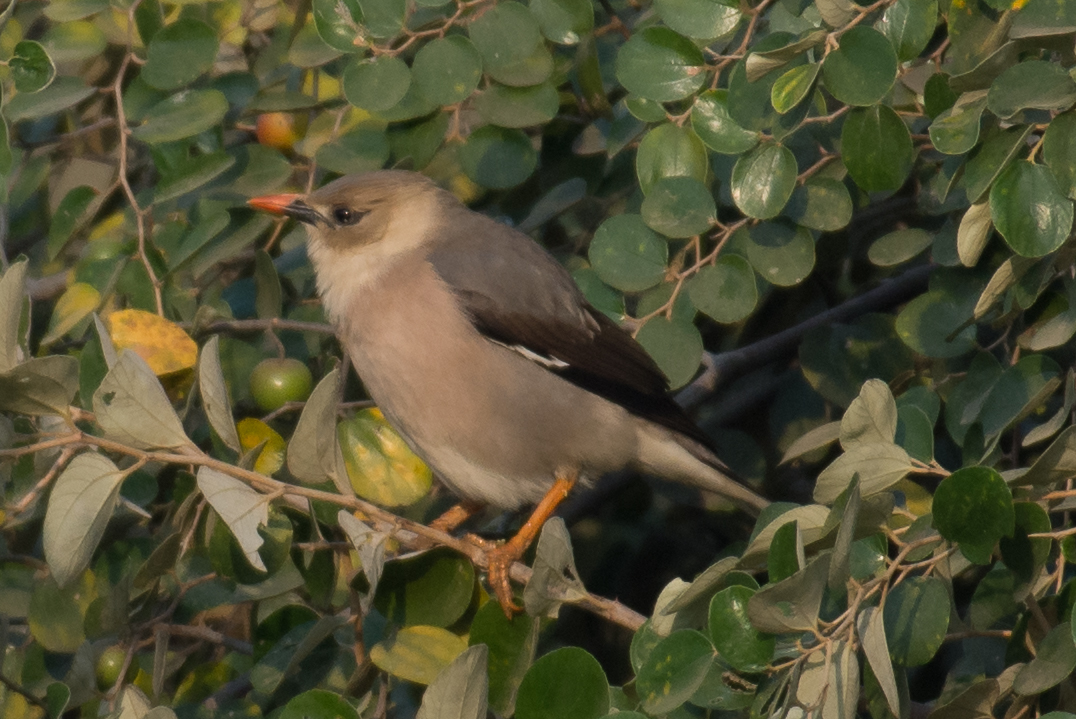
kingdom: Animalia
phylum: Chordata
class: Aves
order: Passeriformes
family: Sturnidae
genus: Acridotheres
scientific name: Acridotheres burmannicus
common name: Vinous-breasted starling
